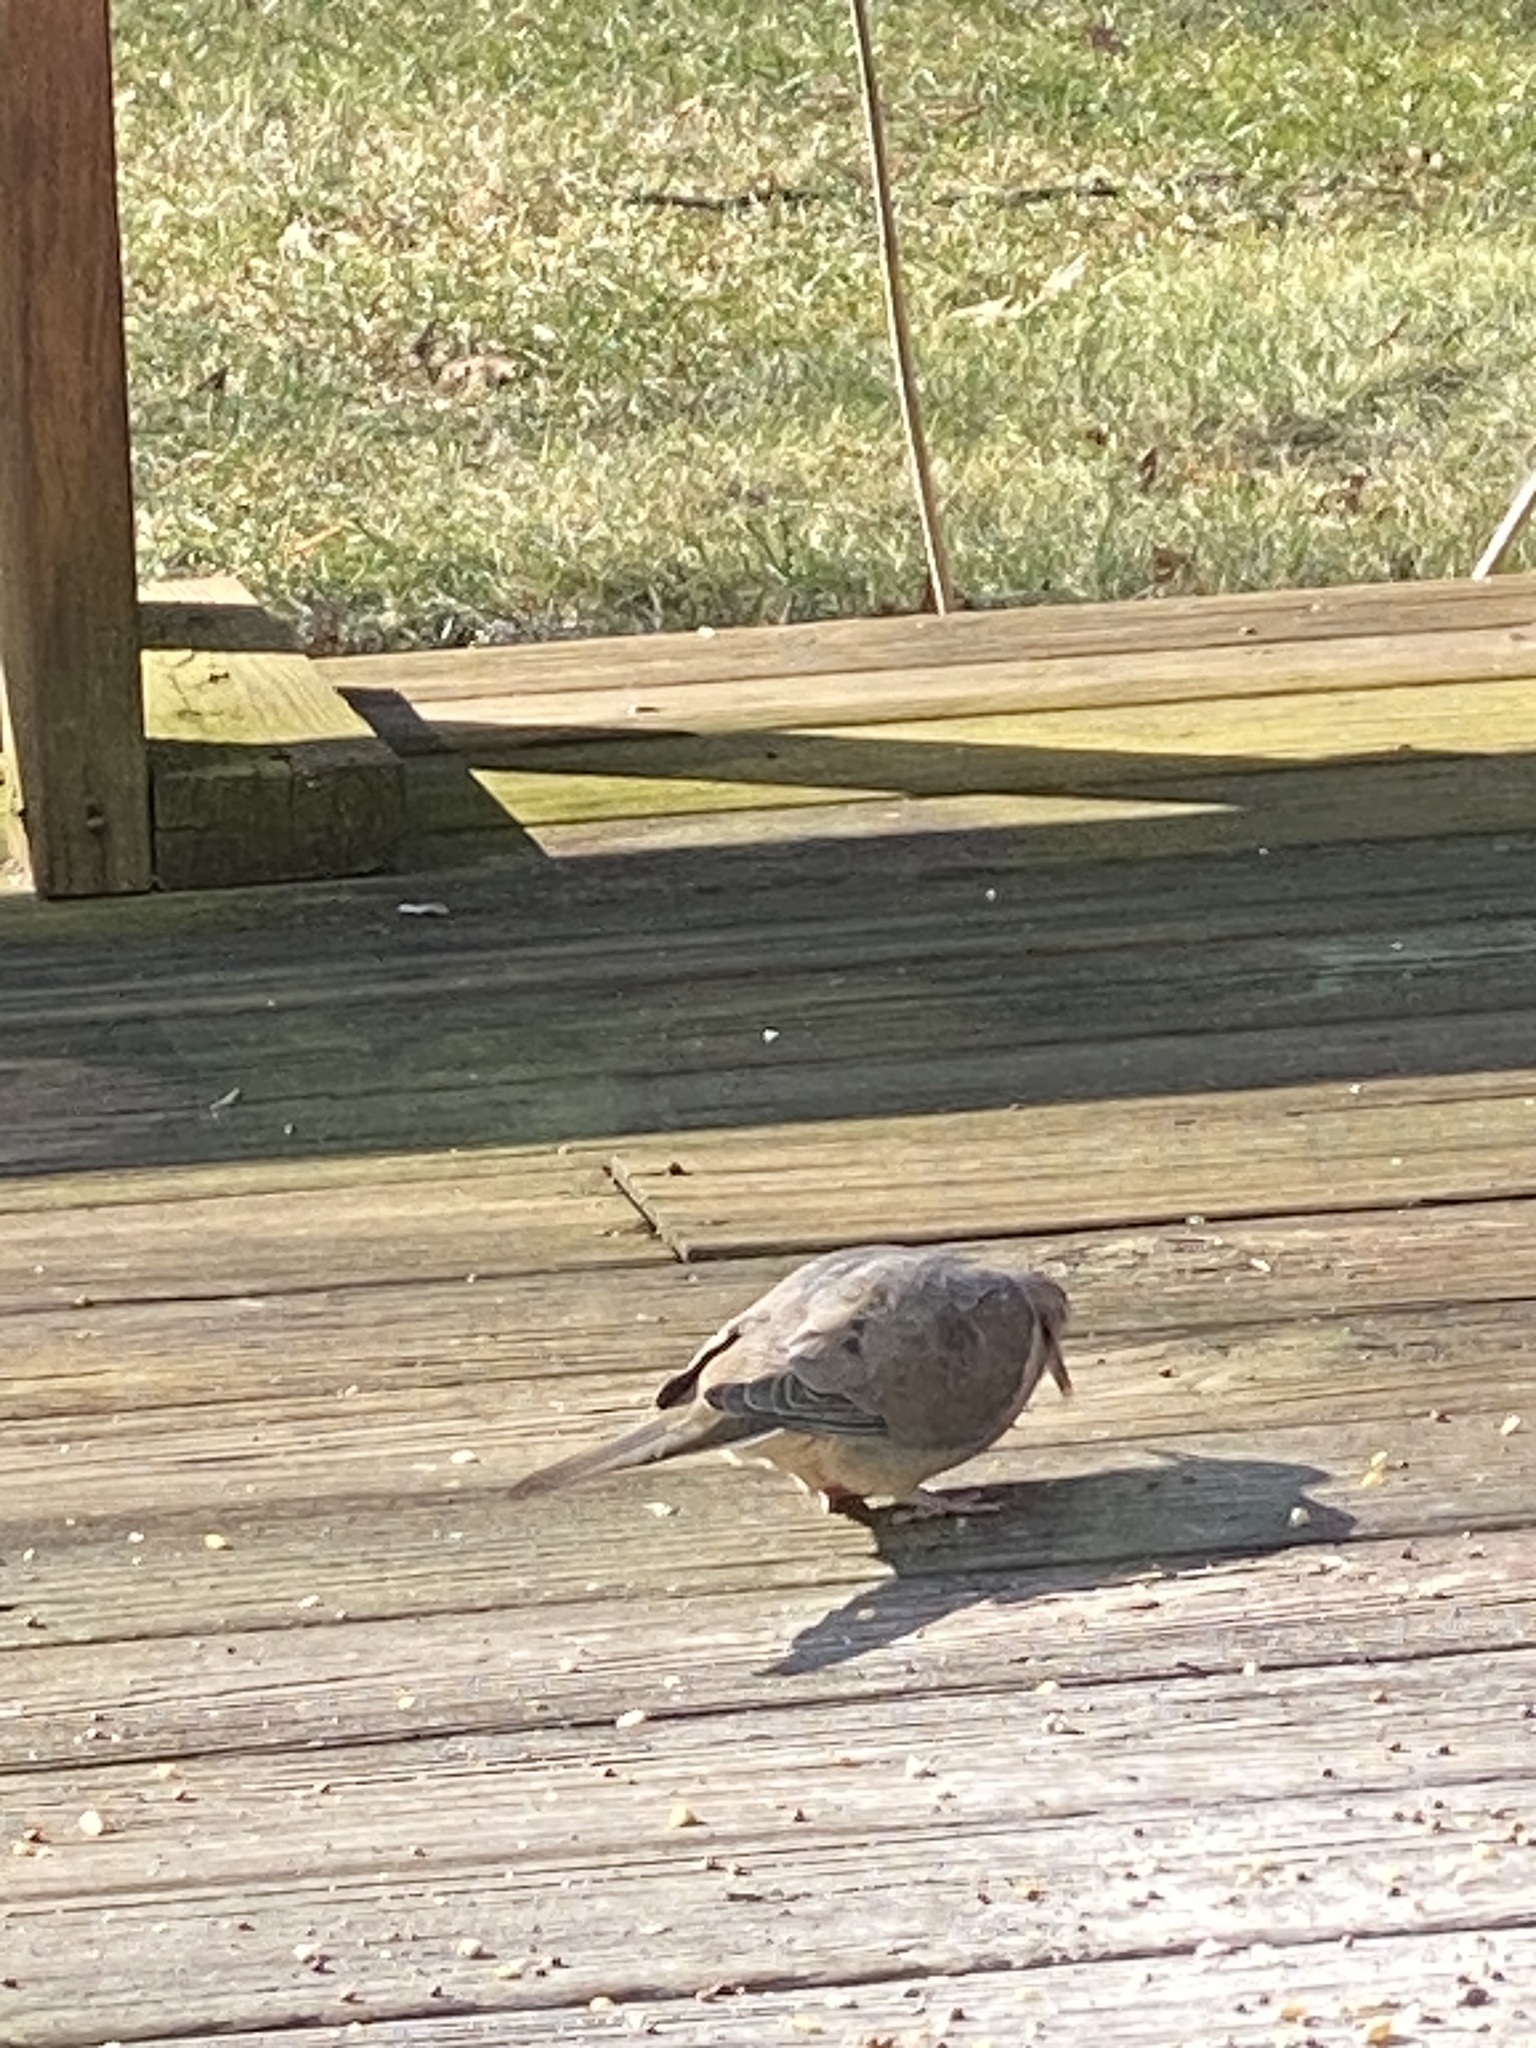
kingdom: Animalia
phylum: Chordata
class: Aves
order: Columbiformes
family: Columbidae
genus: Zenaida
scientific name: Zenaida macroura
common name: Mourning dove
